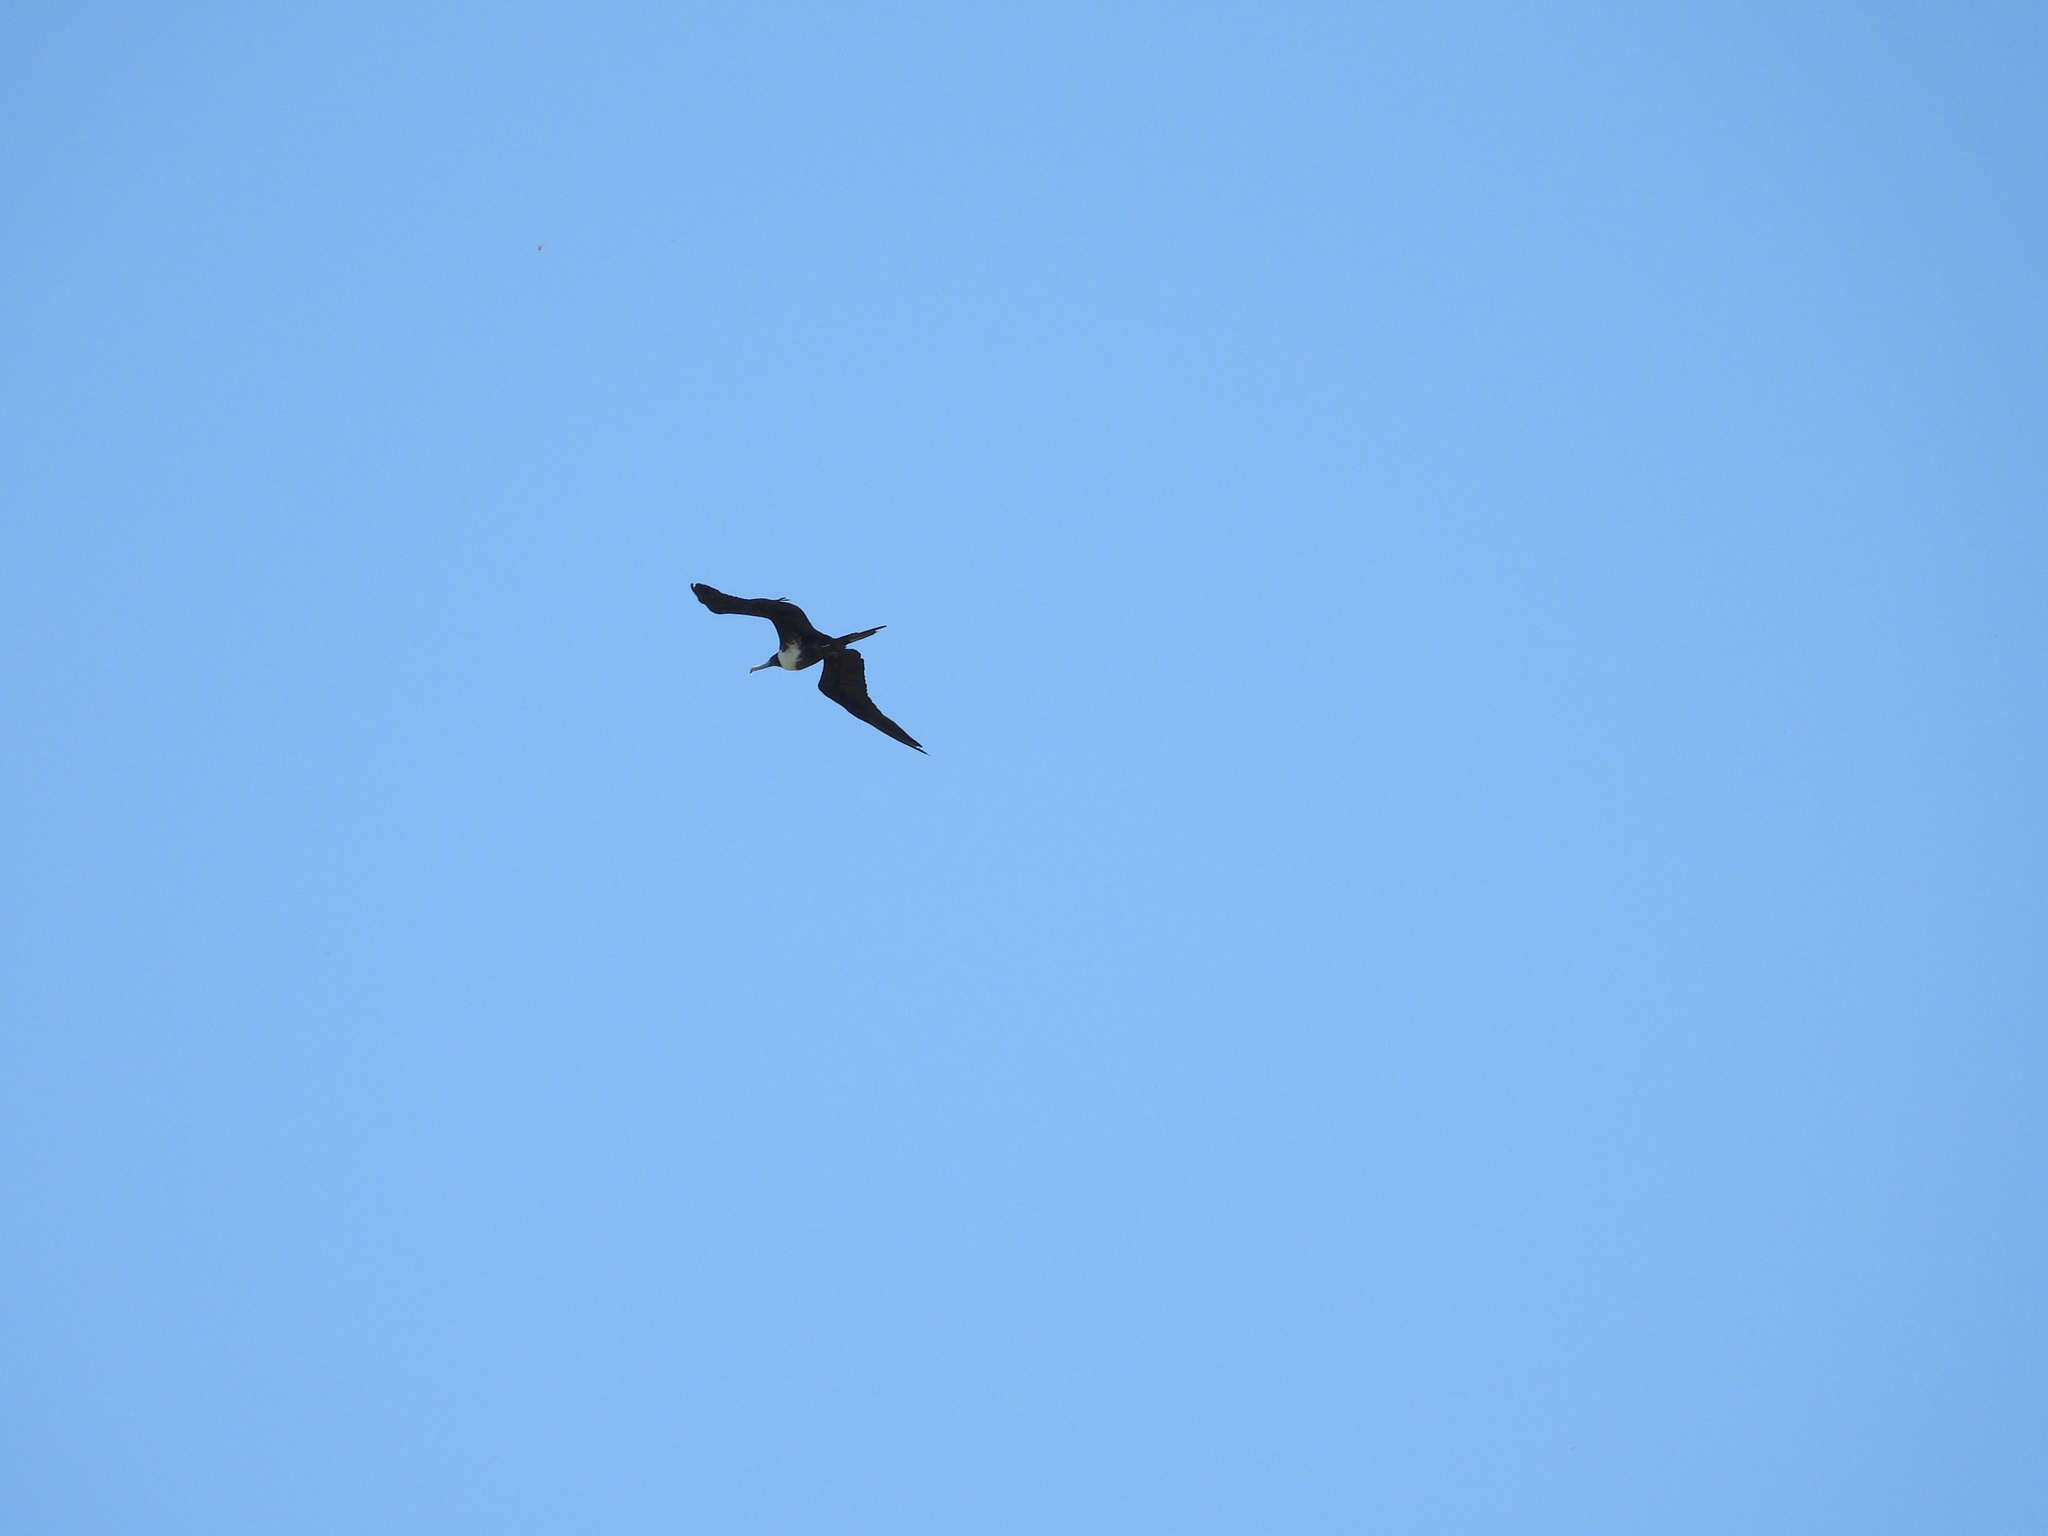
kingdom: Animalia
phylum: Chordata
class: Aves
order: Suliformes
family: Fregatidae
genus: Fregata
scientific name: Fregata magnificens
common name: Magnificent frigatebird
